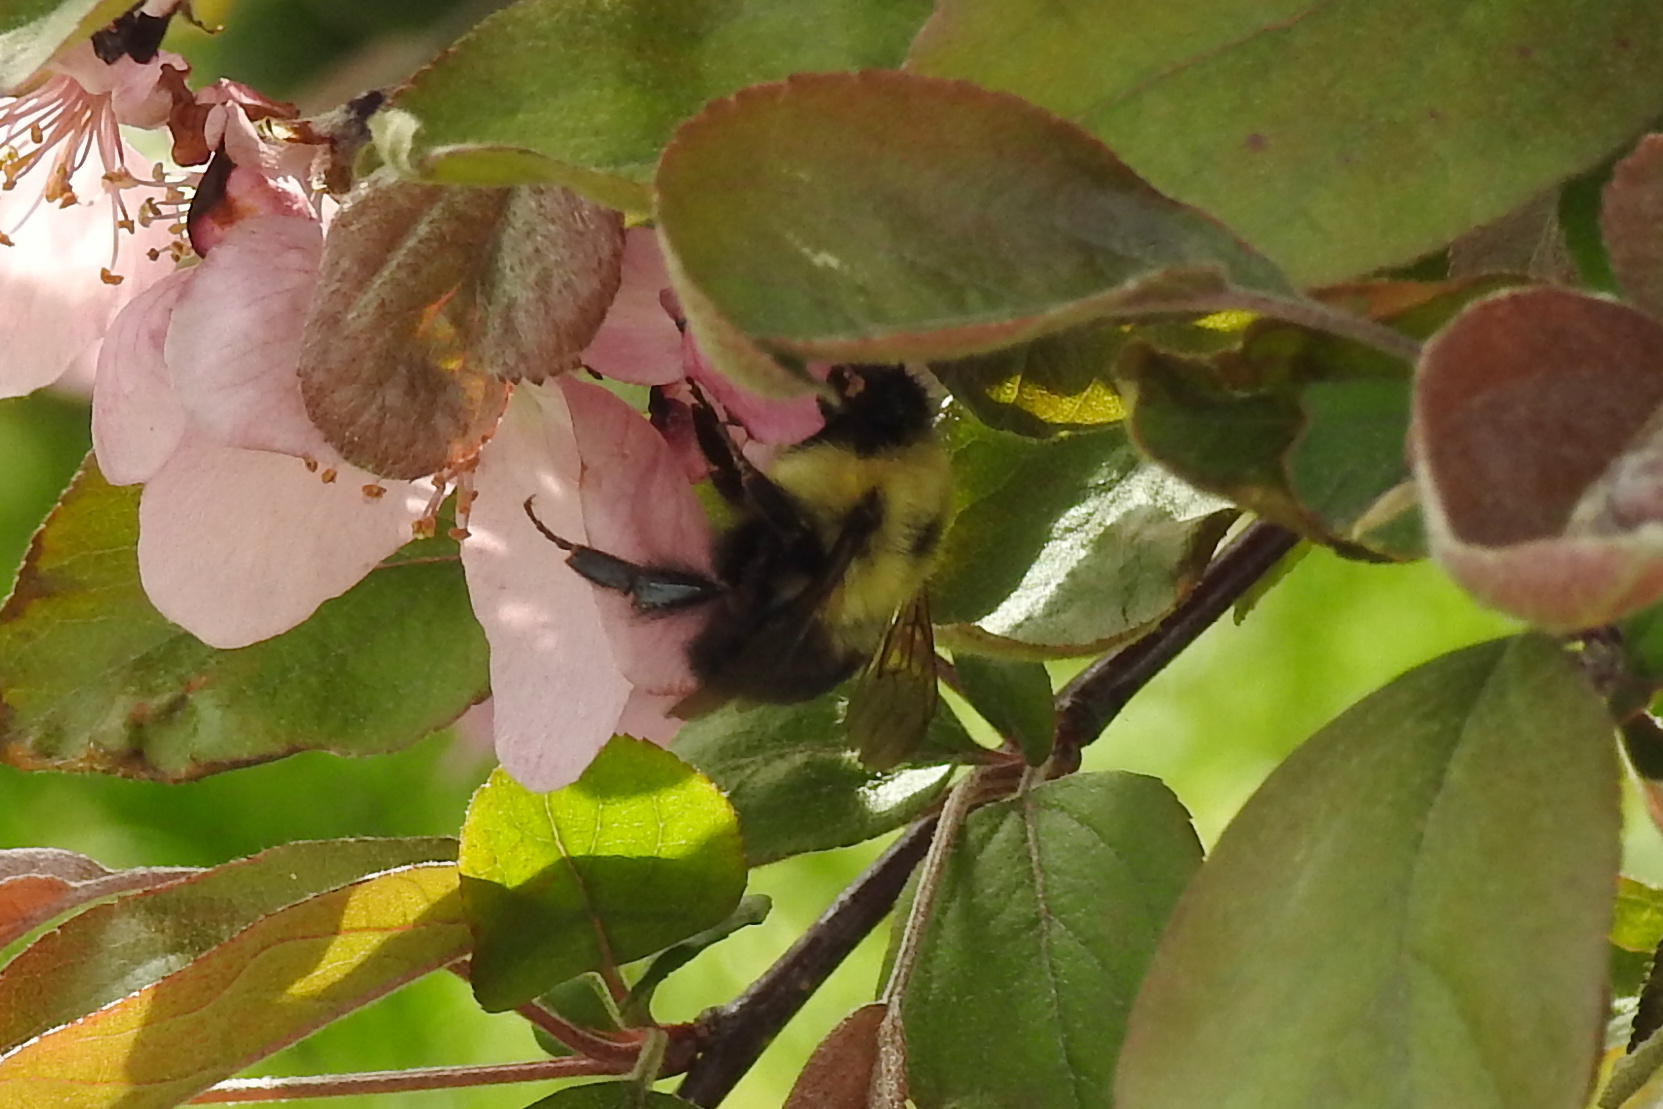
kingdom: Animalia
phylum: Arthropoda
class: Insecta
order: Hymenoptera
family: Apidae
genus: Bombus
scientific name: Bombus bimaculatus
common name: Two-spotted bumble bee
